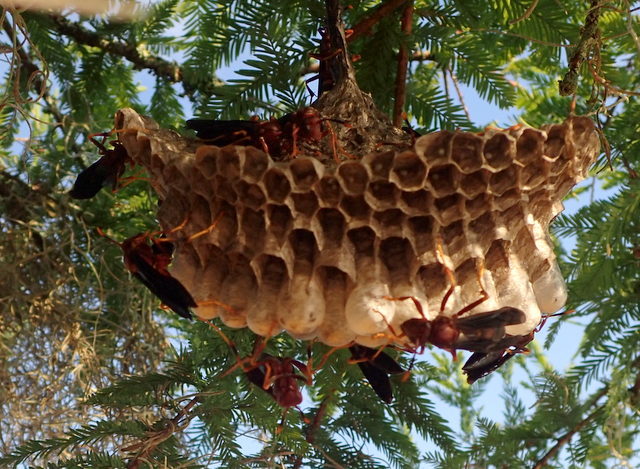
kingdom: Animalia
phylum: Arthropoda
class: Insecta
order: Hymenoptera
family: Eumenidae
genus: Polistes
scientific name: Polistes annularis
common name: Ringed paper wasp
